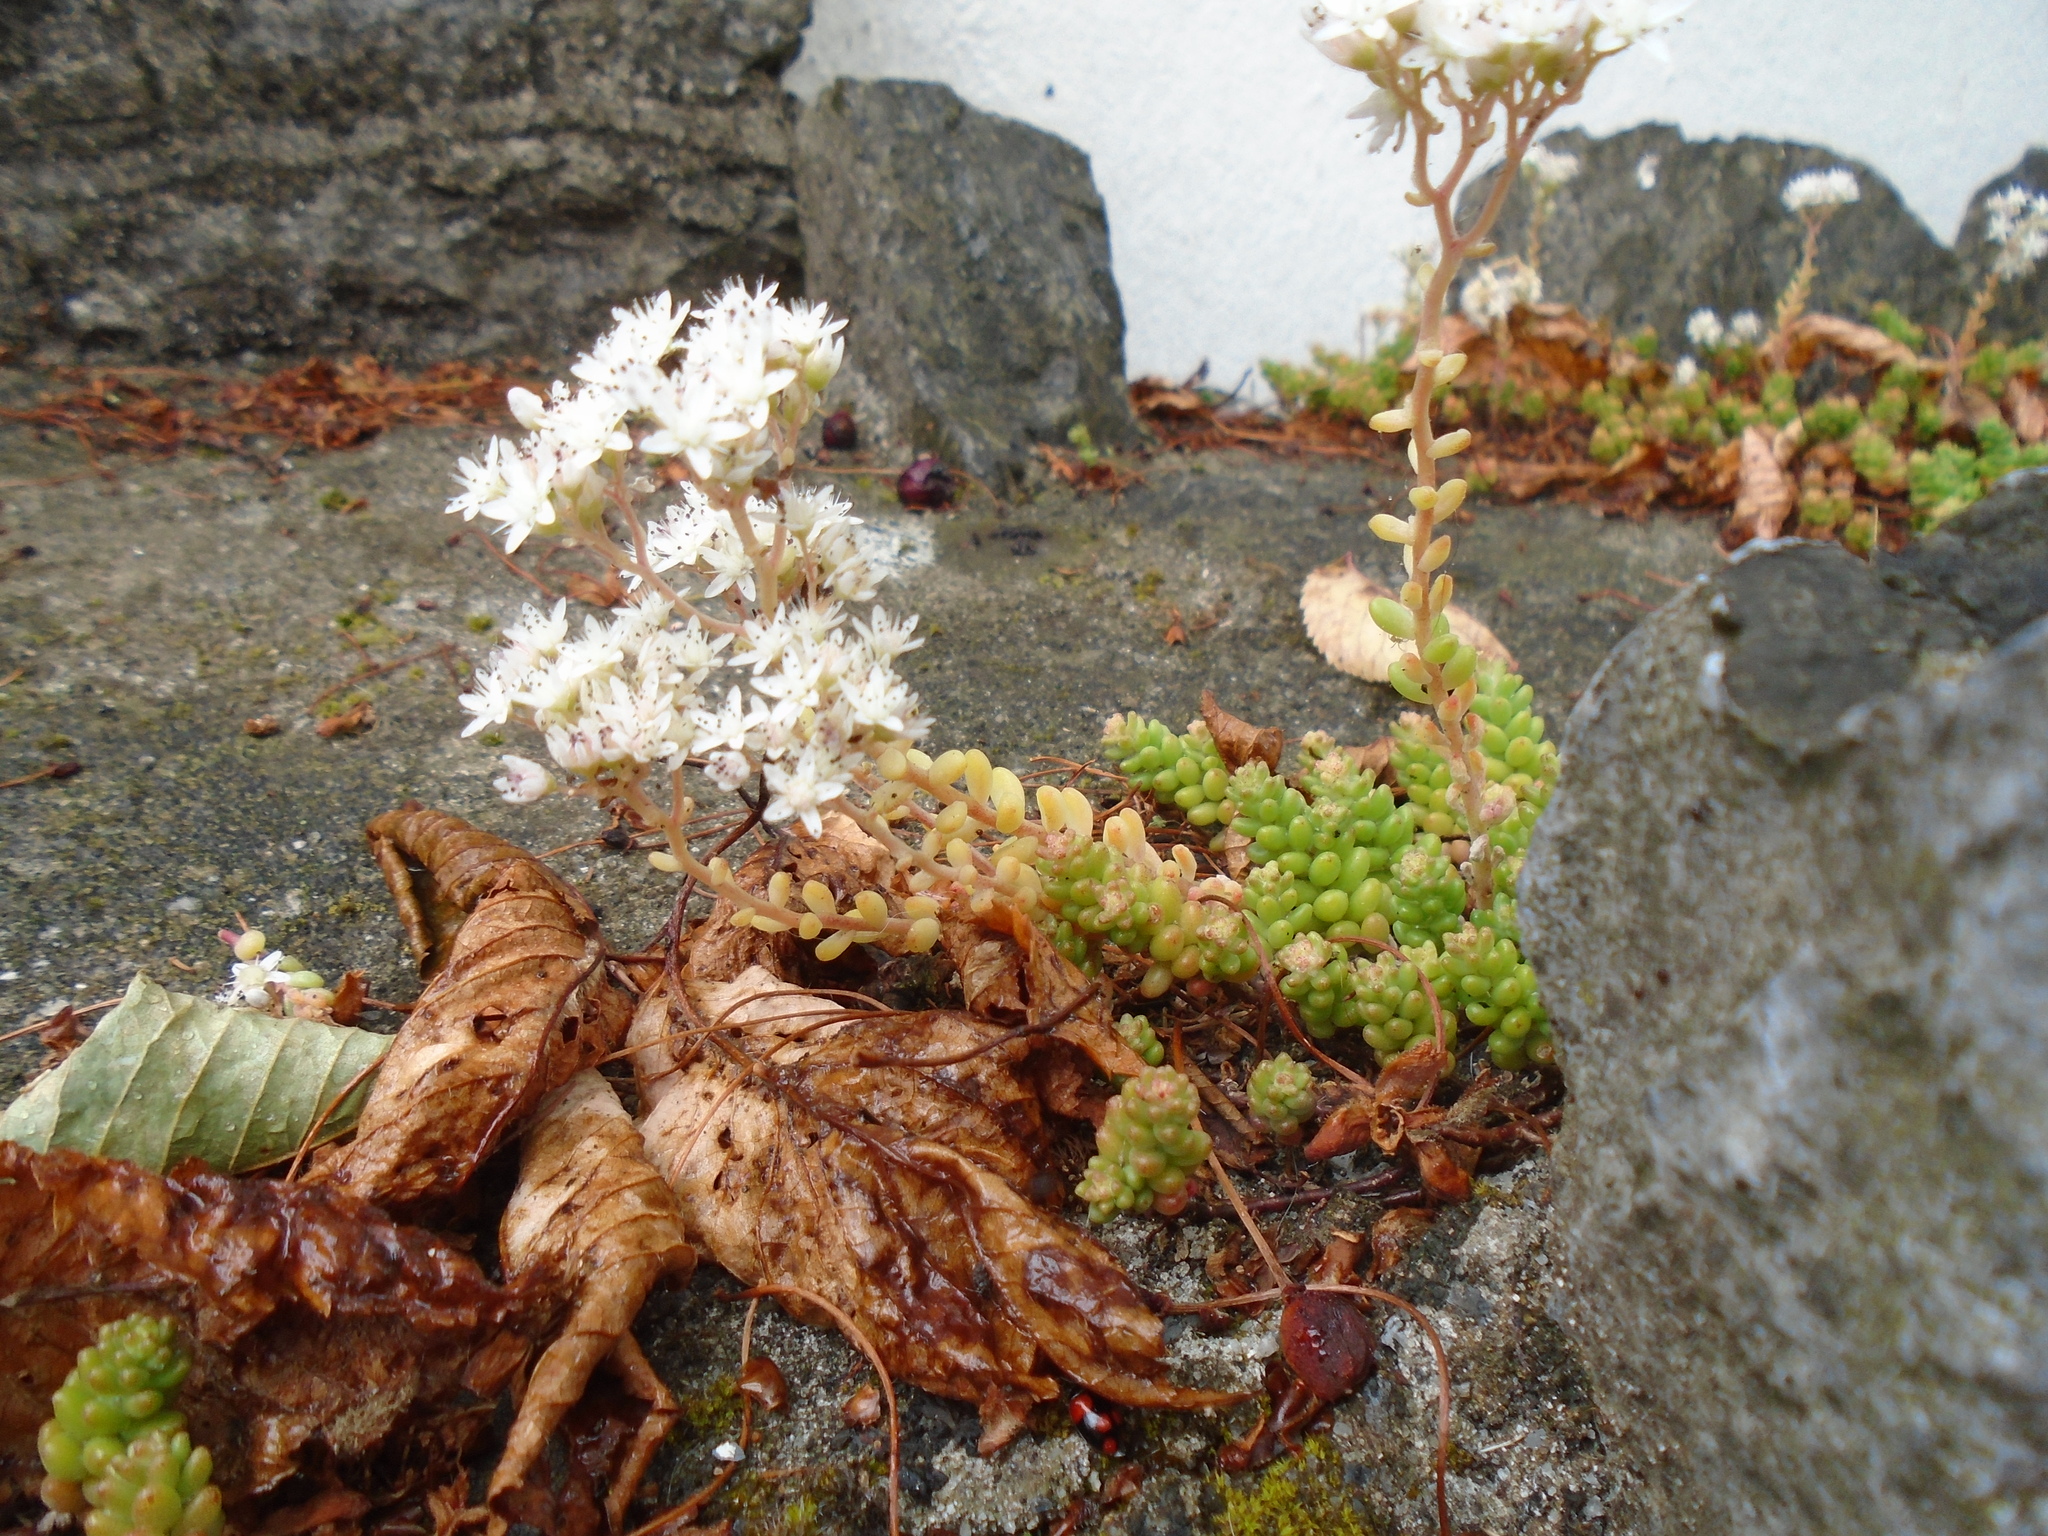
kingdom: Plantae
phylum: Tracheophyta
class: Magnoliopsida
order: Saxifragales
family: Crassulaceae
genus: Sedum
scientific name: Sedum album
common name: White stonecrop
